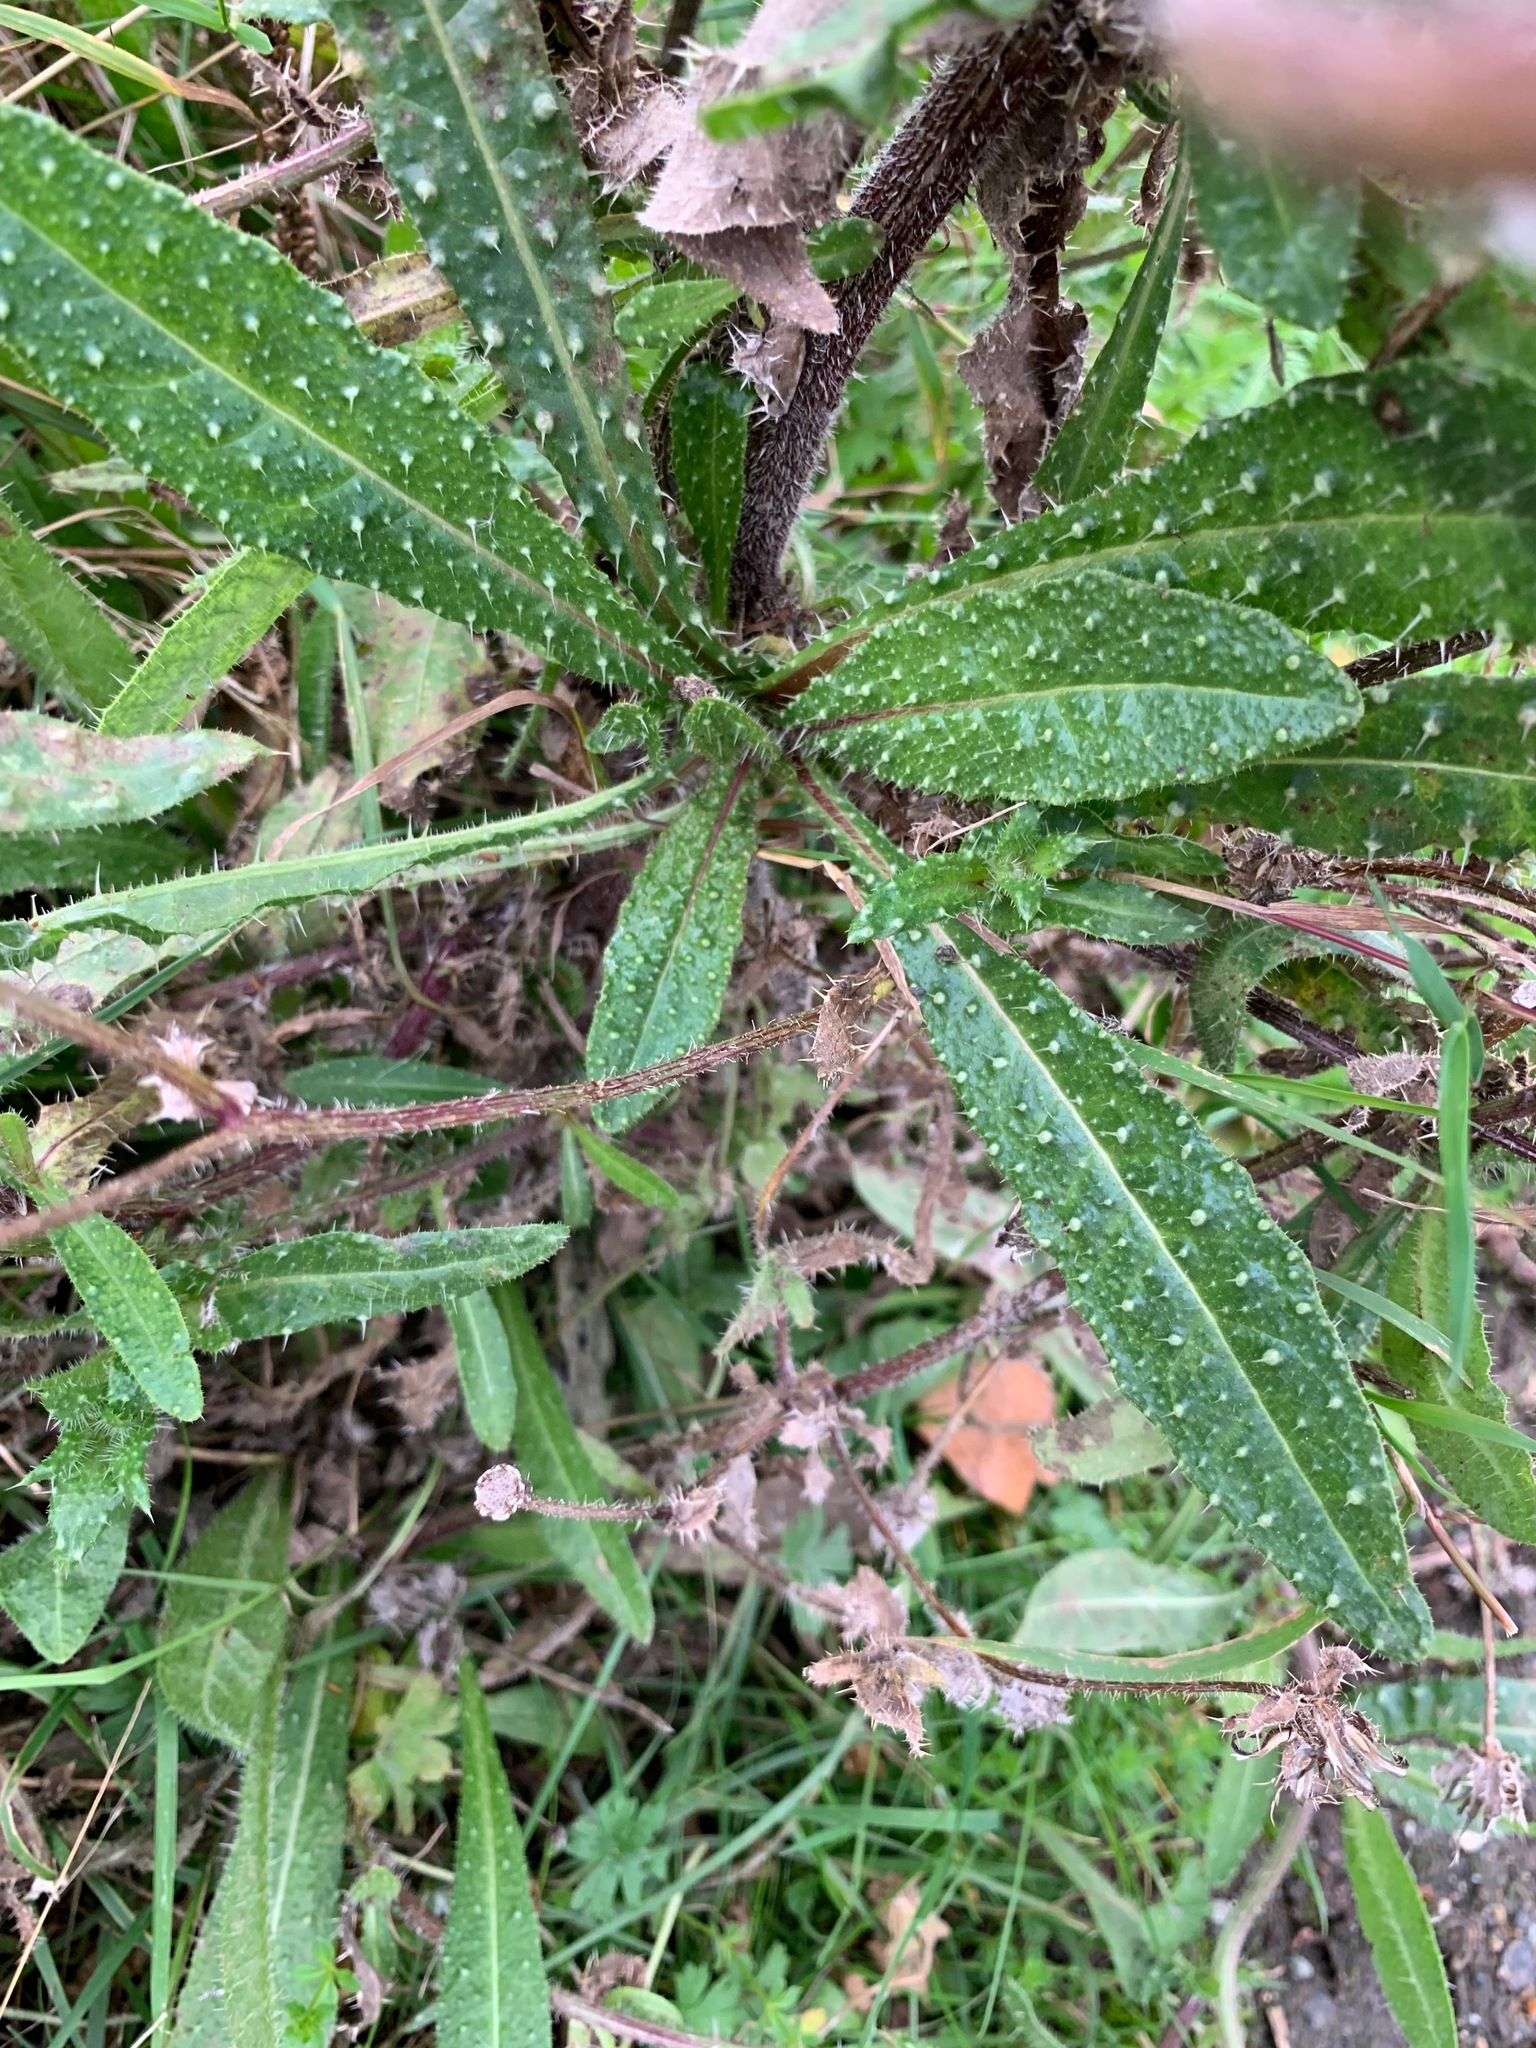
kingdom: Plantae
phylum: Tracheophyta
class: Magnoliopsida
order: Asterales
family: Asteraceae
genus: Helminthotheca
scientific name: Helminthotheca echioides
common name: Ox-tongue
